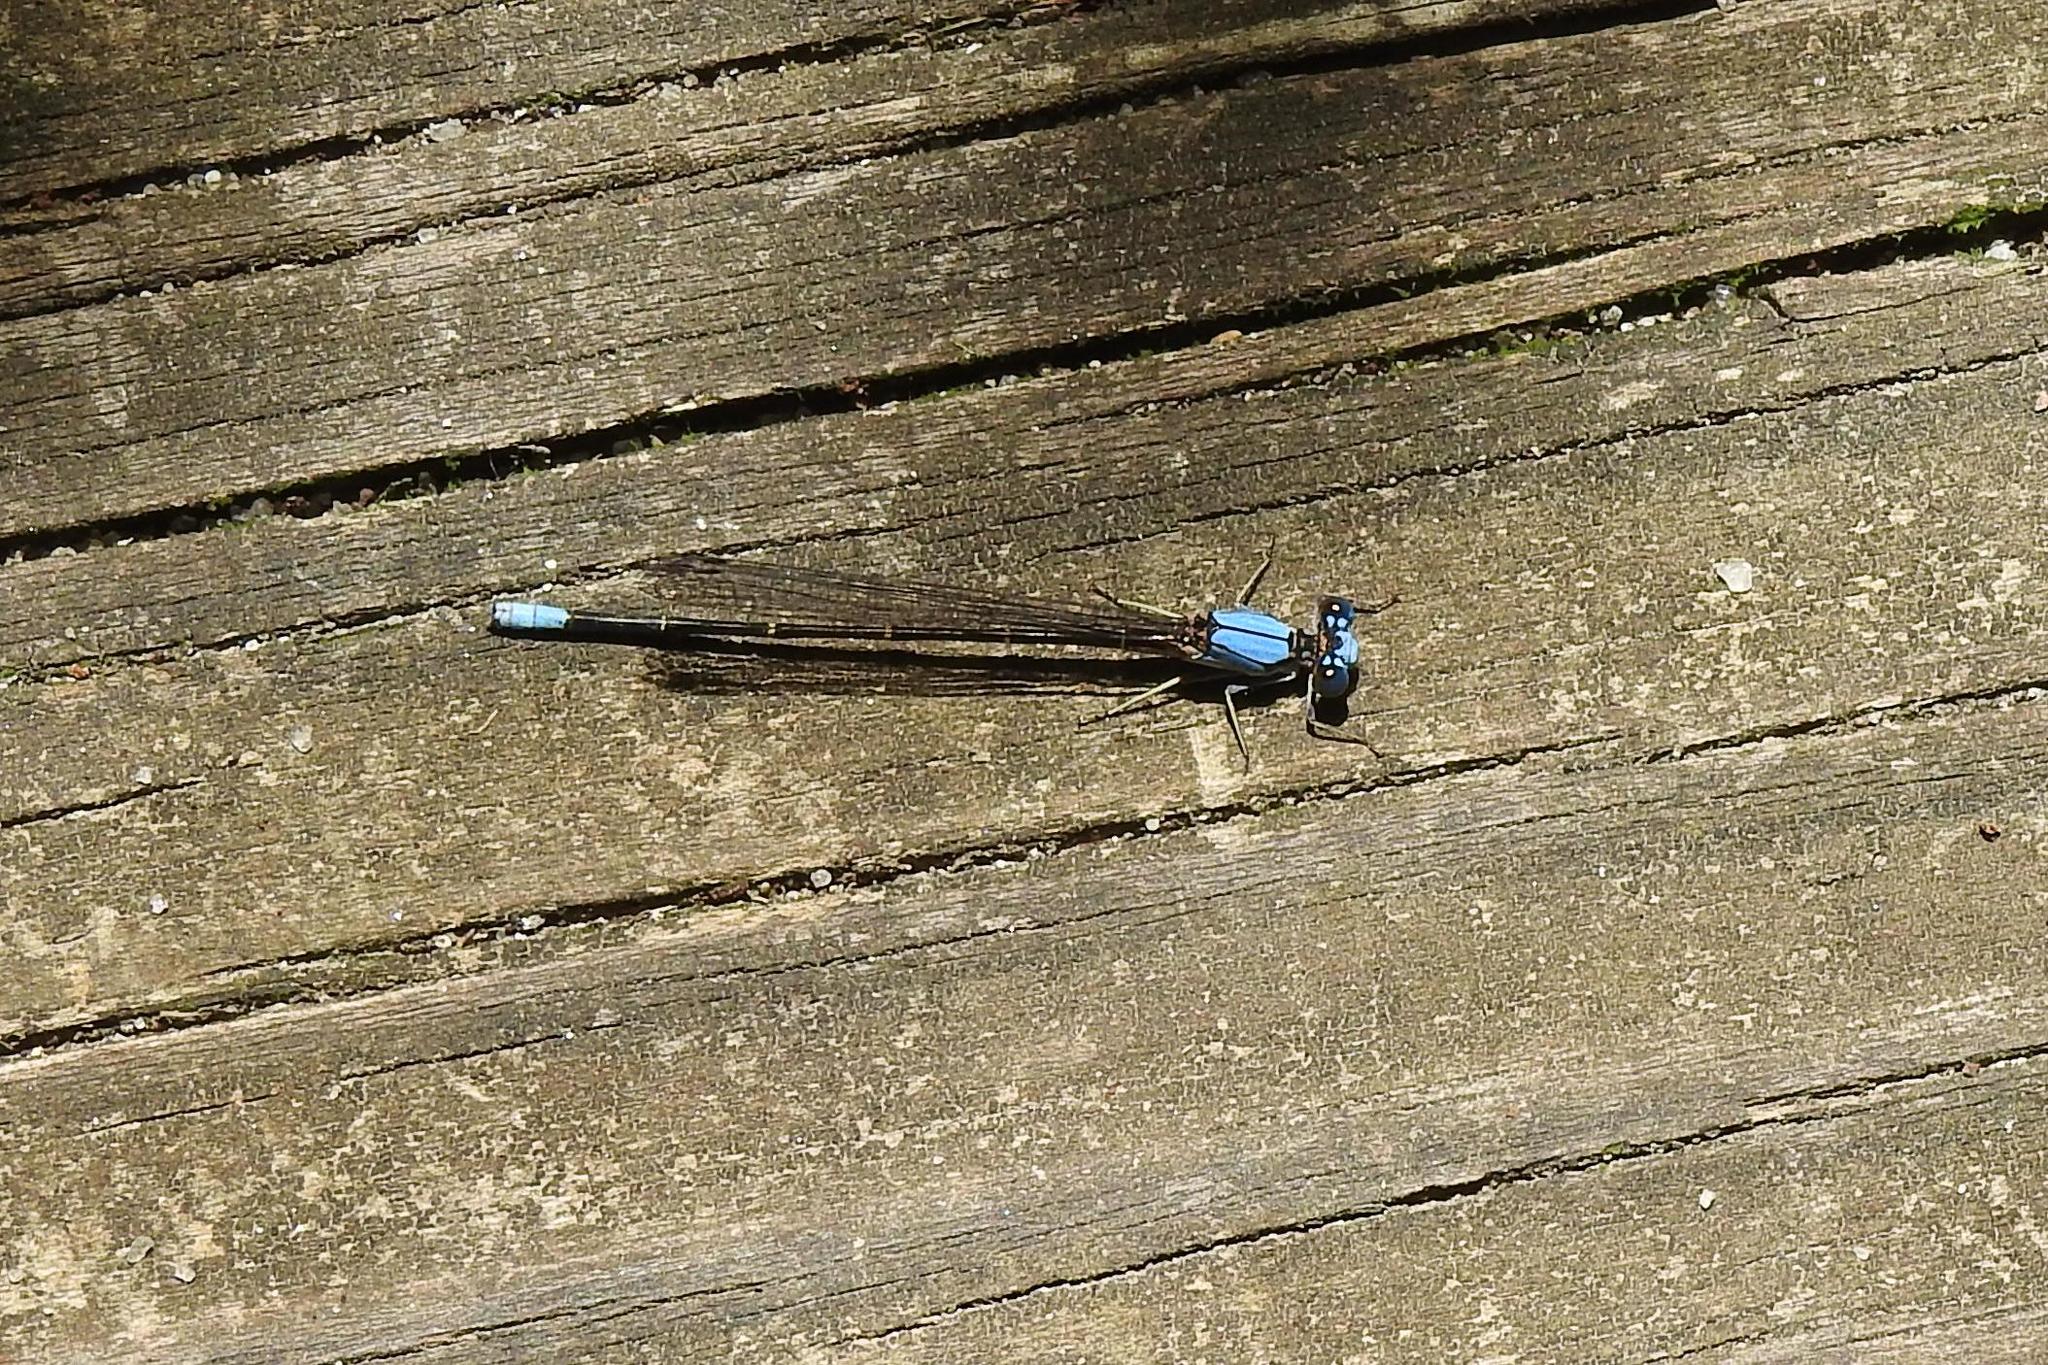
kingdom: Animalia
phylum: Arthropoda
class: Insecta
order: Odonata
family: Coenagrionidae
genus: Argia
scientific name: Argia apicalis
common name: Blue-fronted dancer
